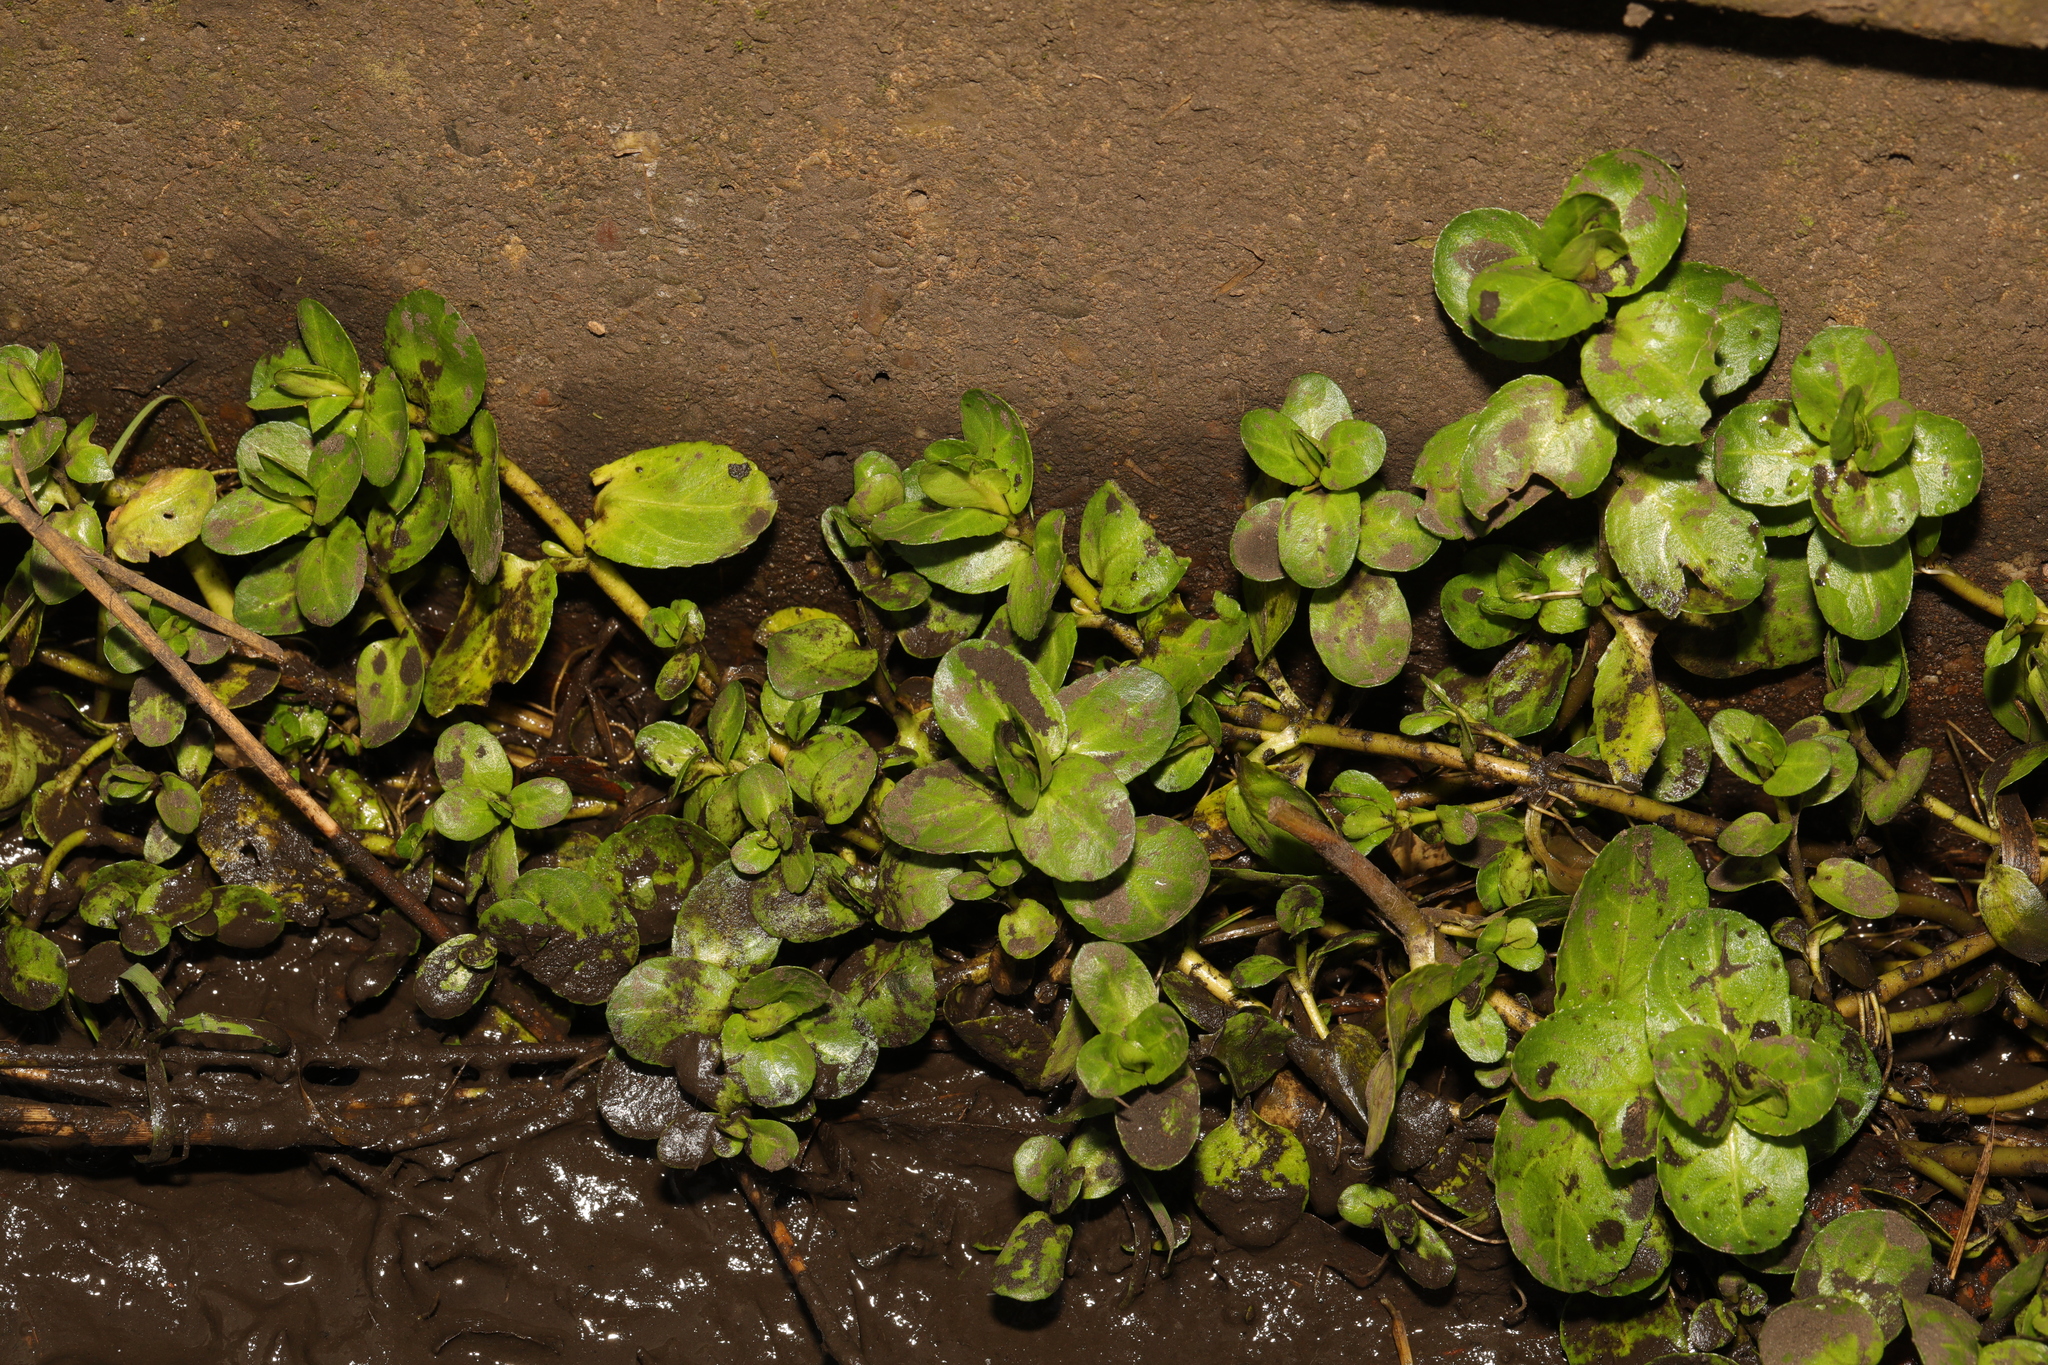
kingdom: Plantae
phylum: Tracheophyta
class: Magnoliopsida
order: Lamiales
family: Plantaginaceae
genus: Veronica
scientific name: Veronica beccabunga
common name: Brooklime
